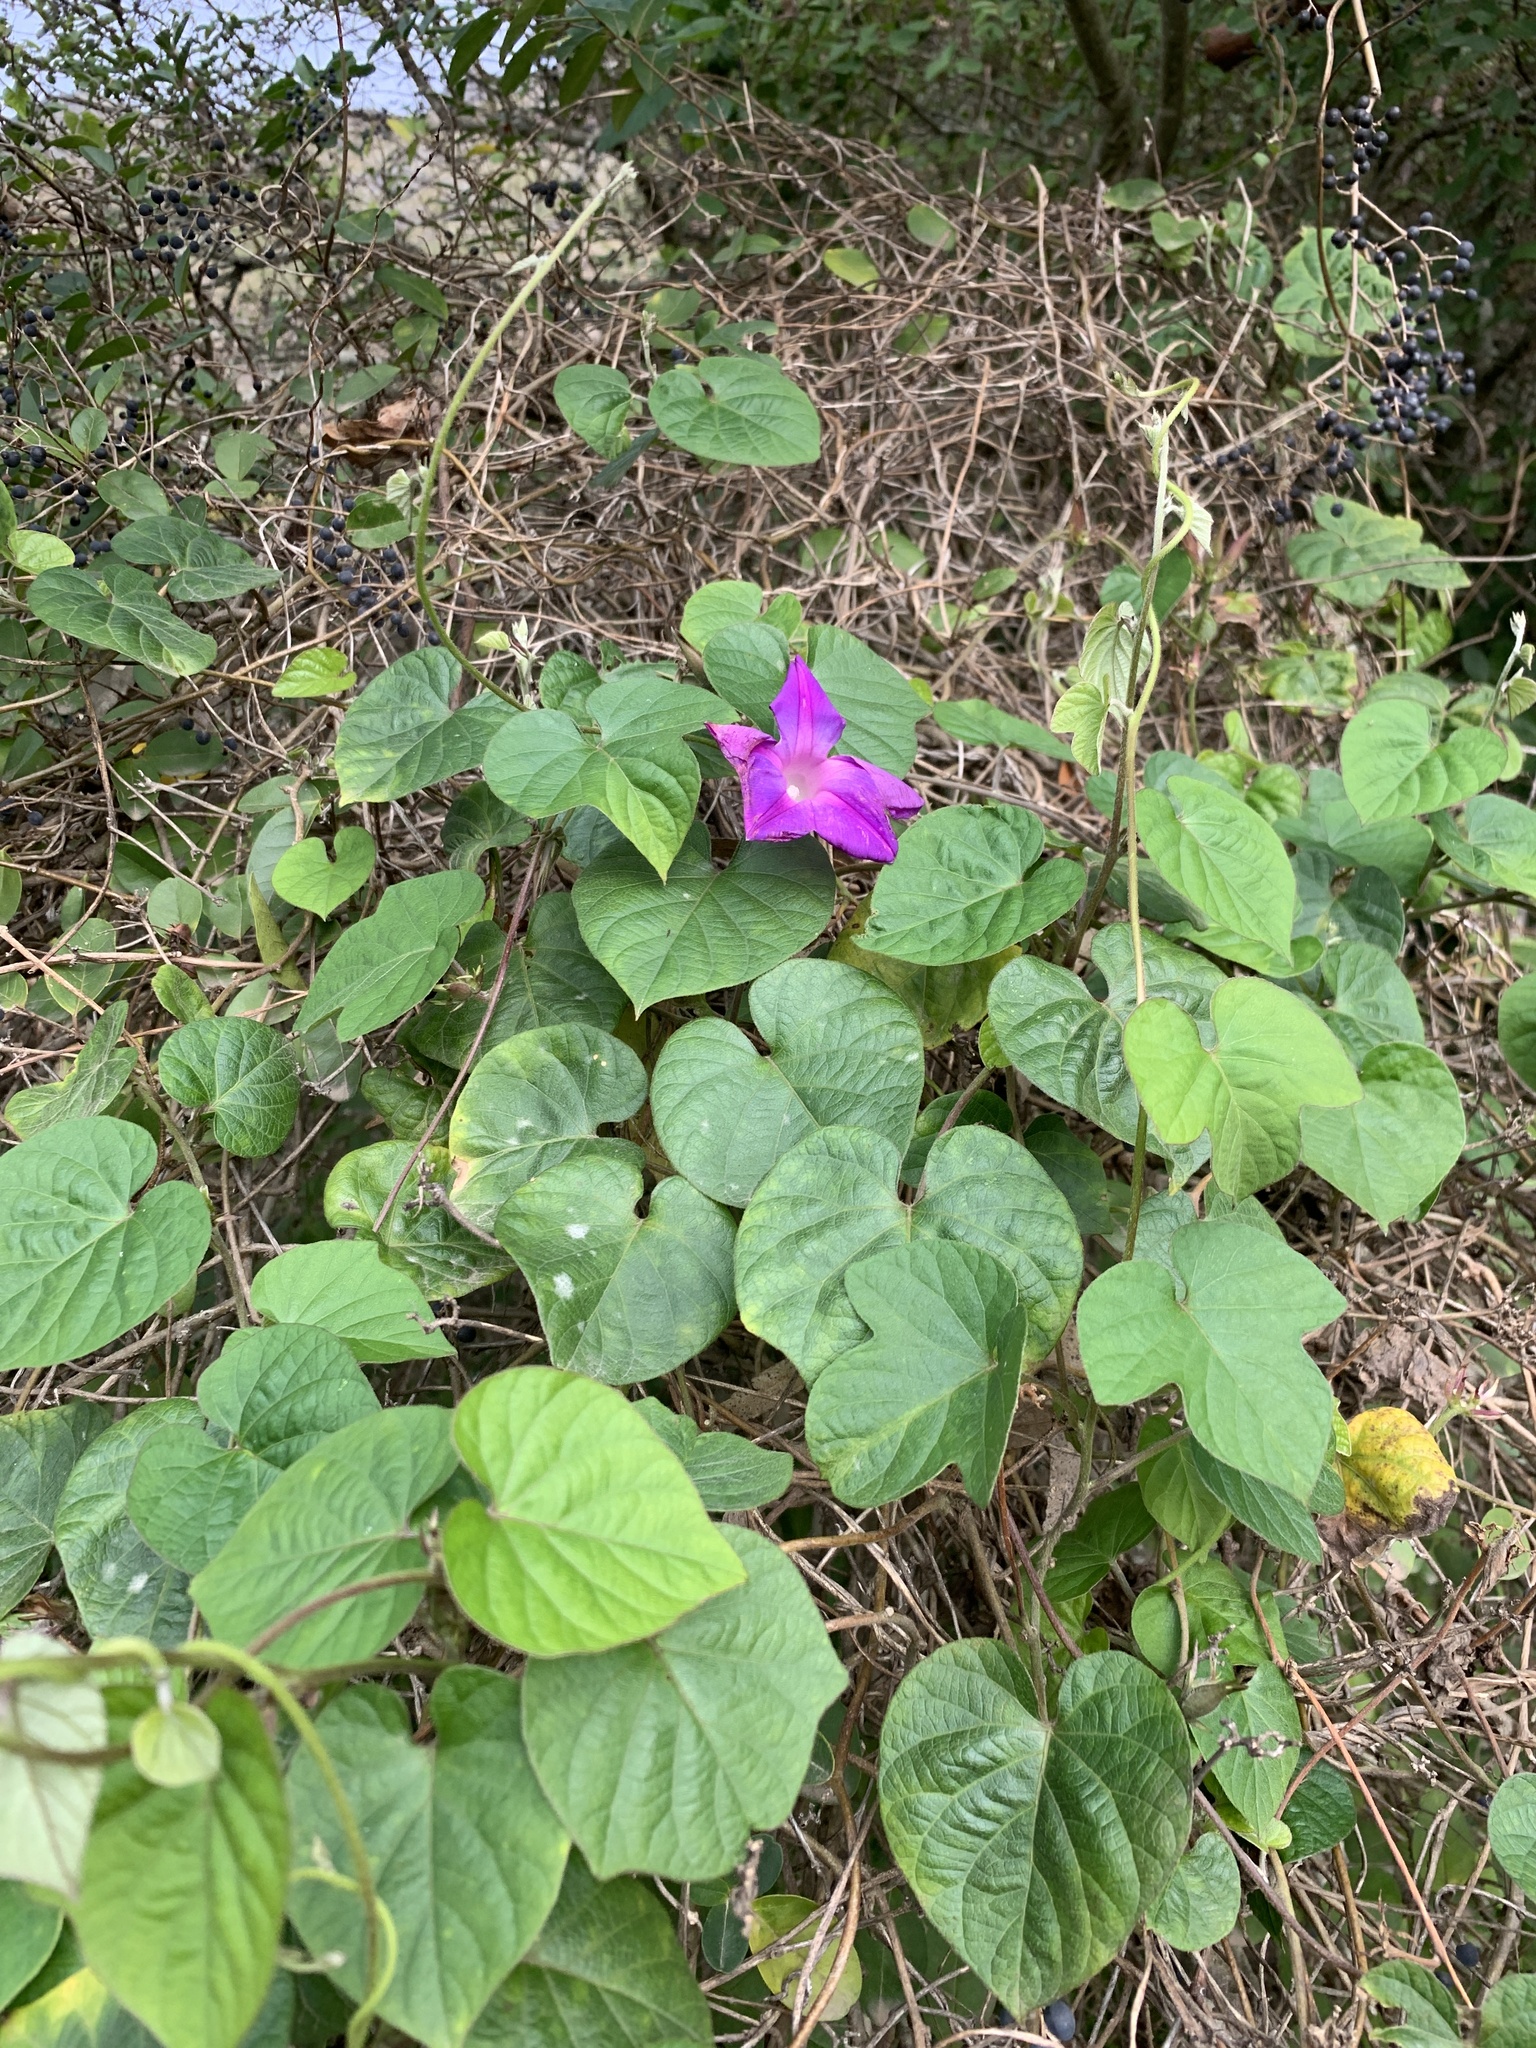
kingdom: Plantae
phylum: Tracheophyta
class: Magnoliopsida
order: Solanales
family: Convolvulaceae
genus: Ipomoea
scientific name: Ipomoea indica
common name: Blue dawnflower
